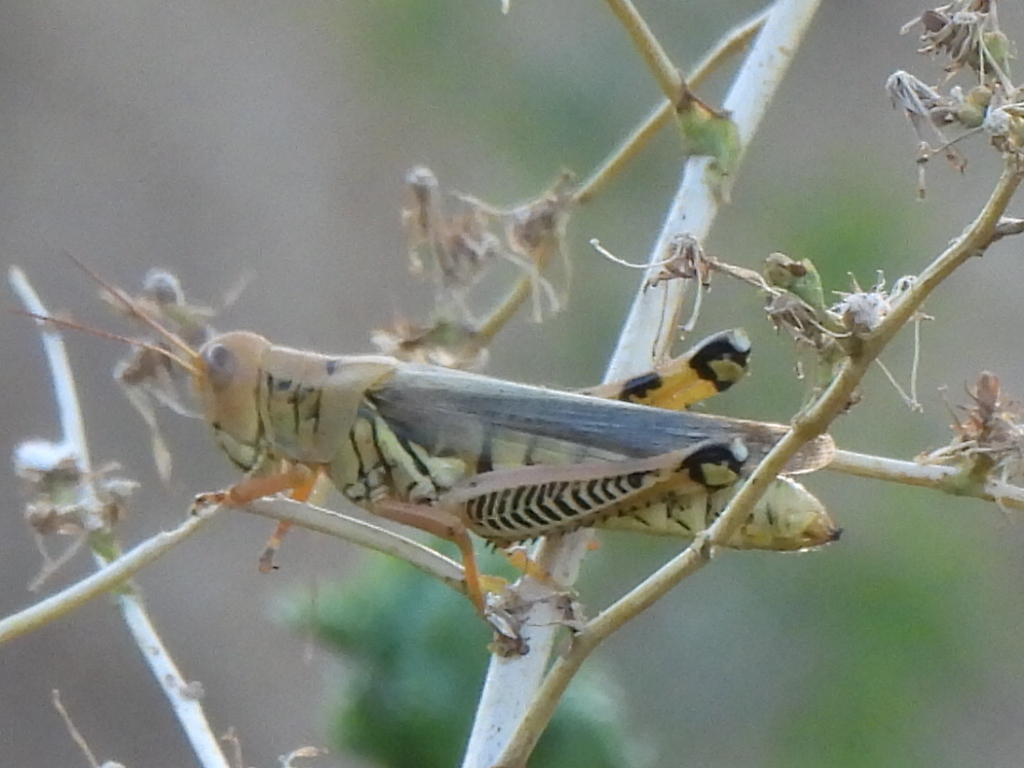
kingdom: Animalia
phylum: Arthropoda
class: Insecta
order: Orthoptera
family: Acrididae
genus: Melanoplus
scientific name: Melanoplus differentialis
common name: Differential grasshopper
